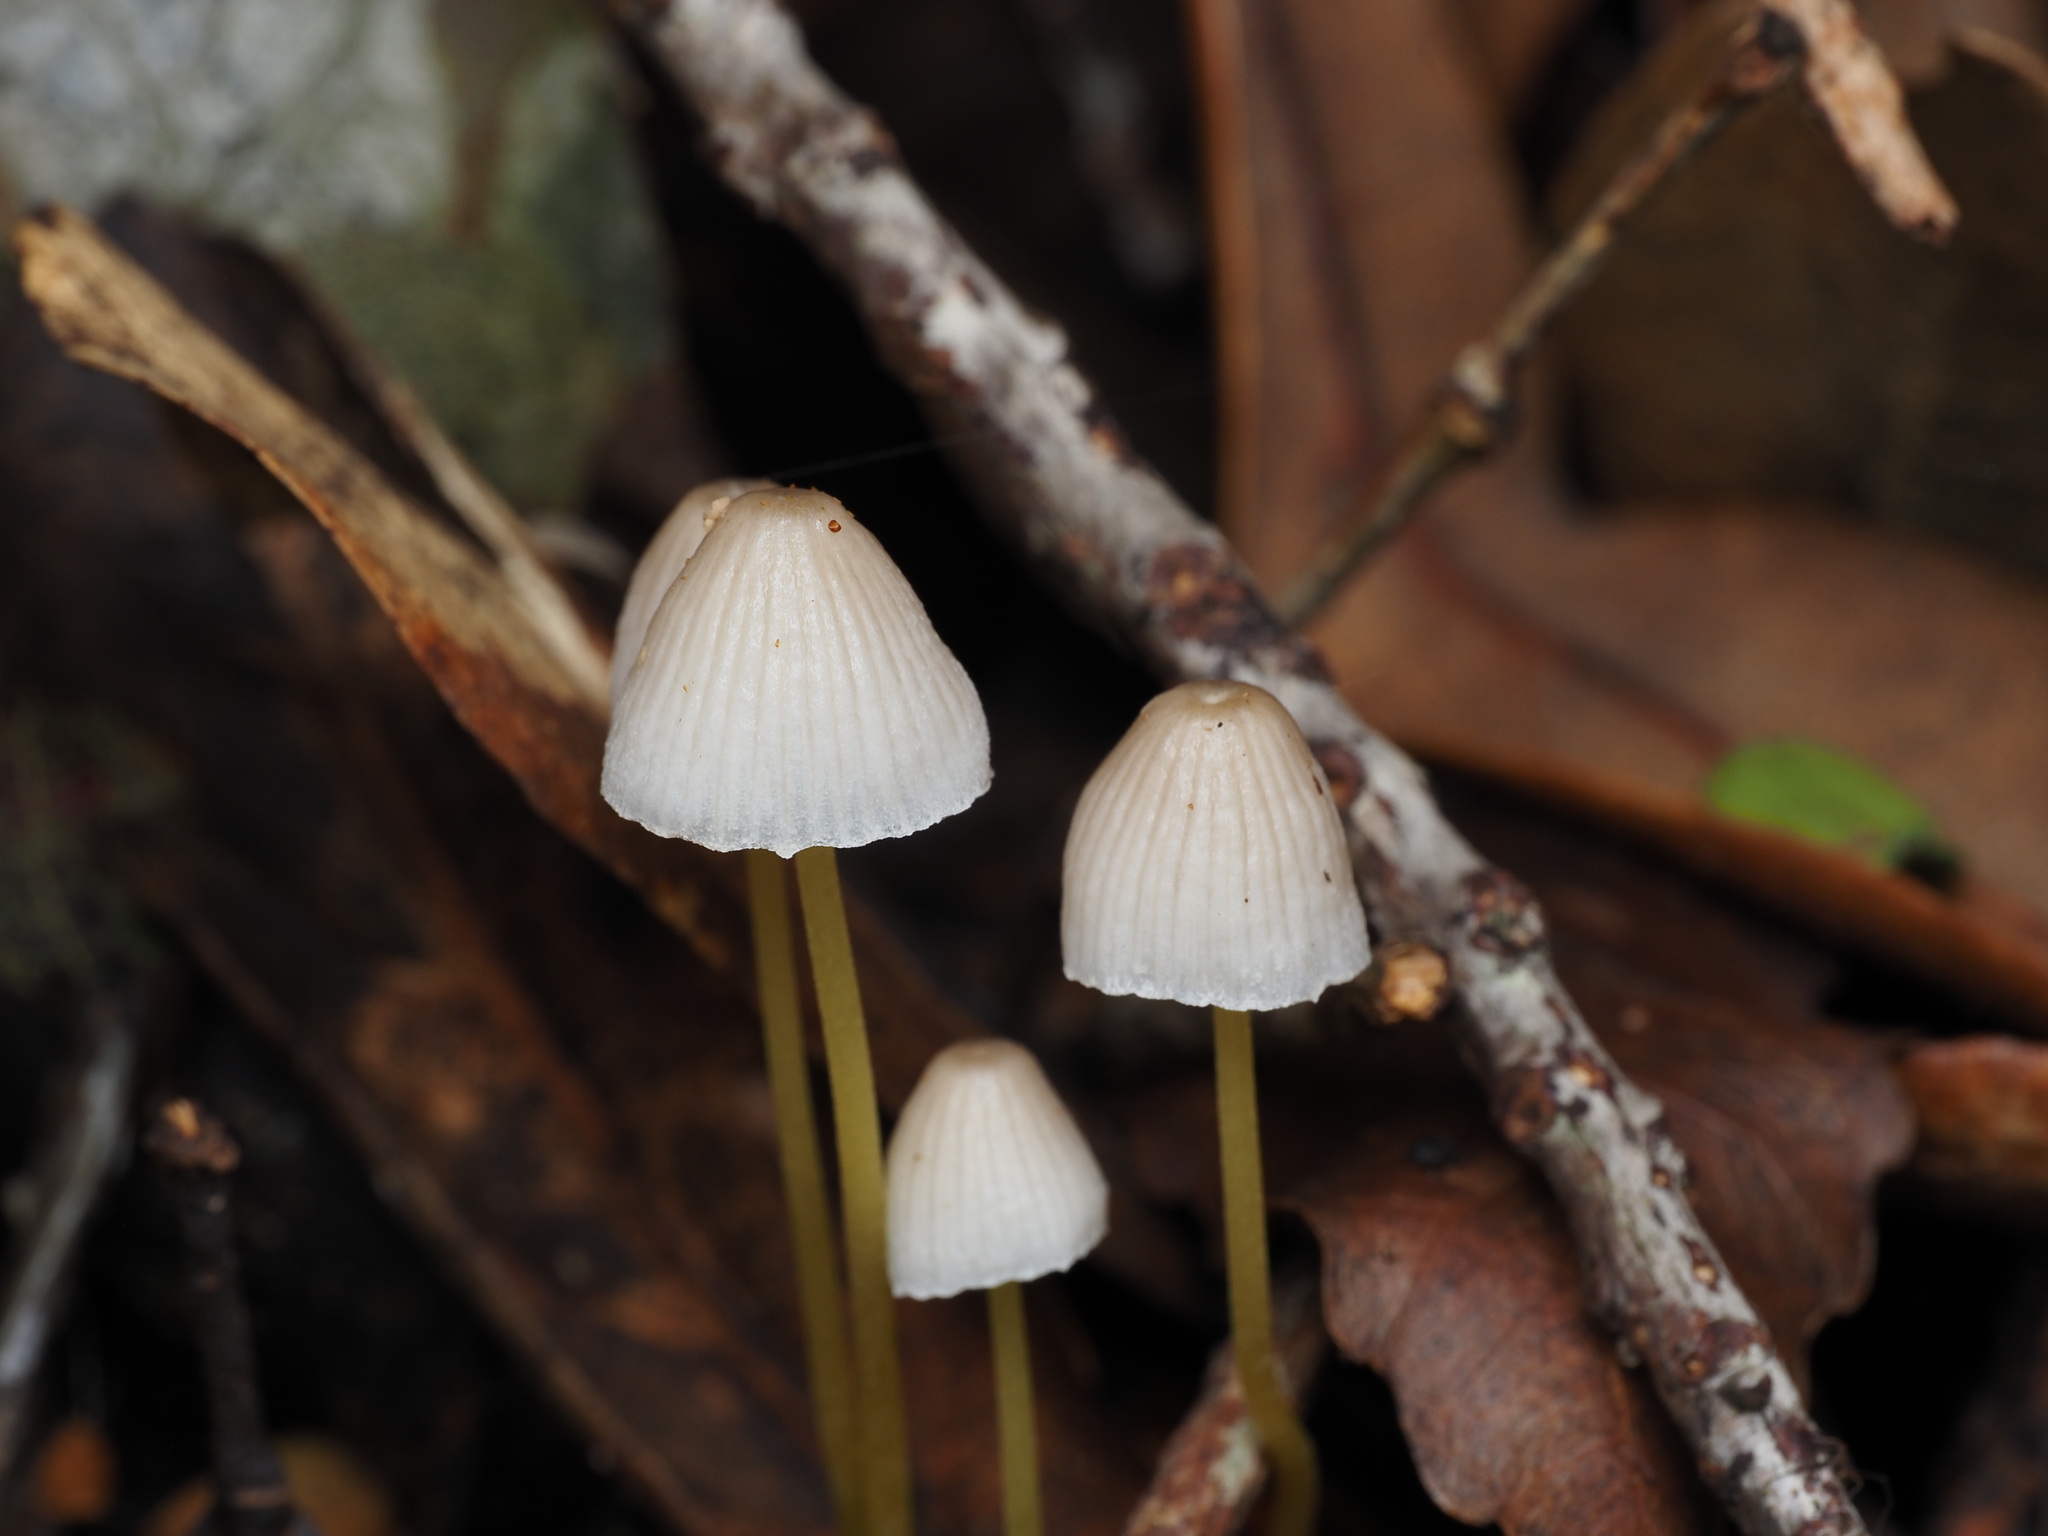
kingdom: Fungi
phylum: Basidiomycota
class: Agaricomycetes
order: Agaricales
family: Mycenaceae
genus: Mycena
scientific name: Mycena subviscosa
